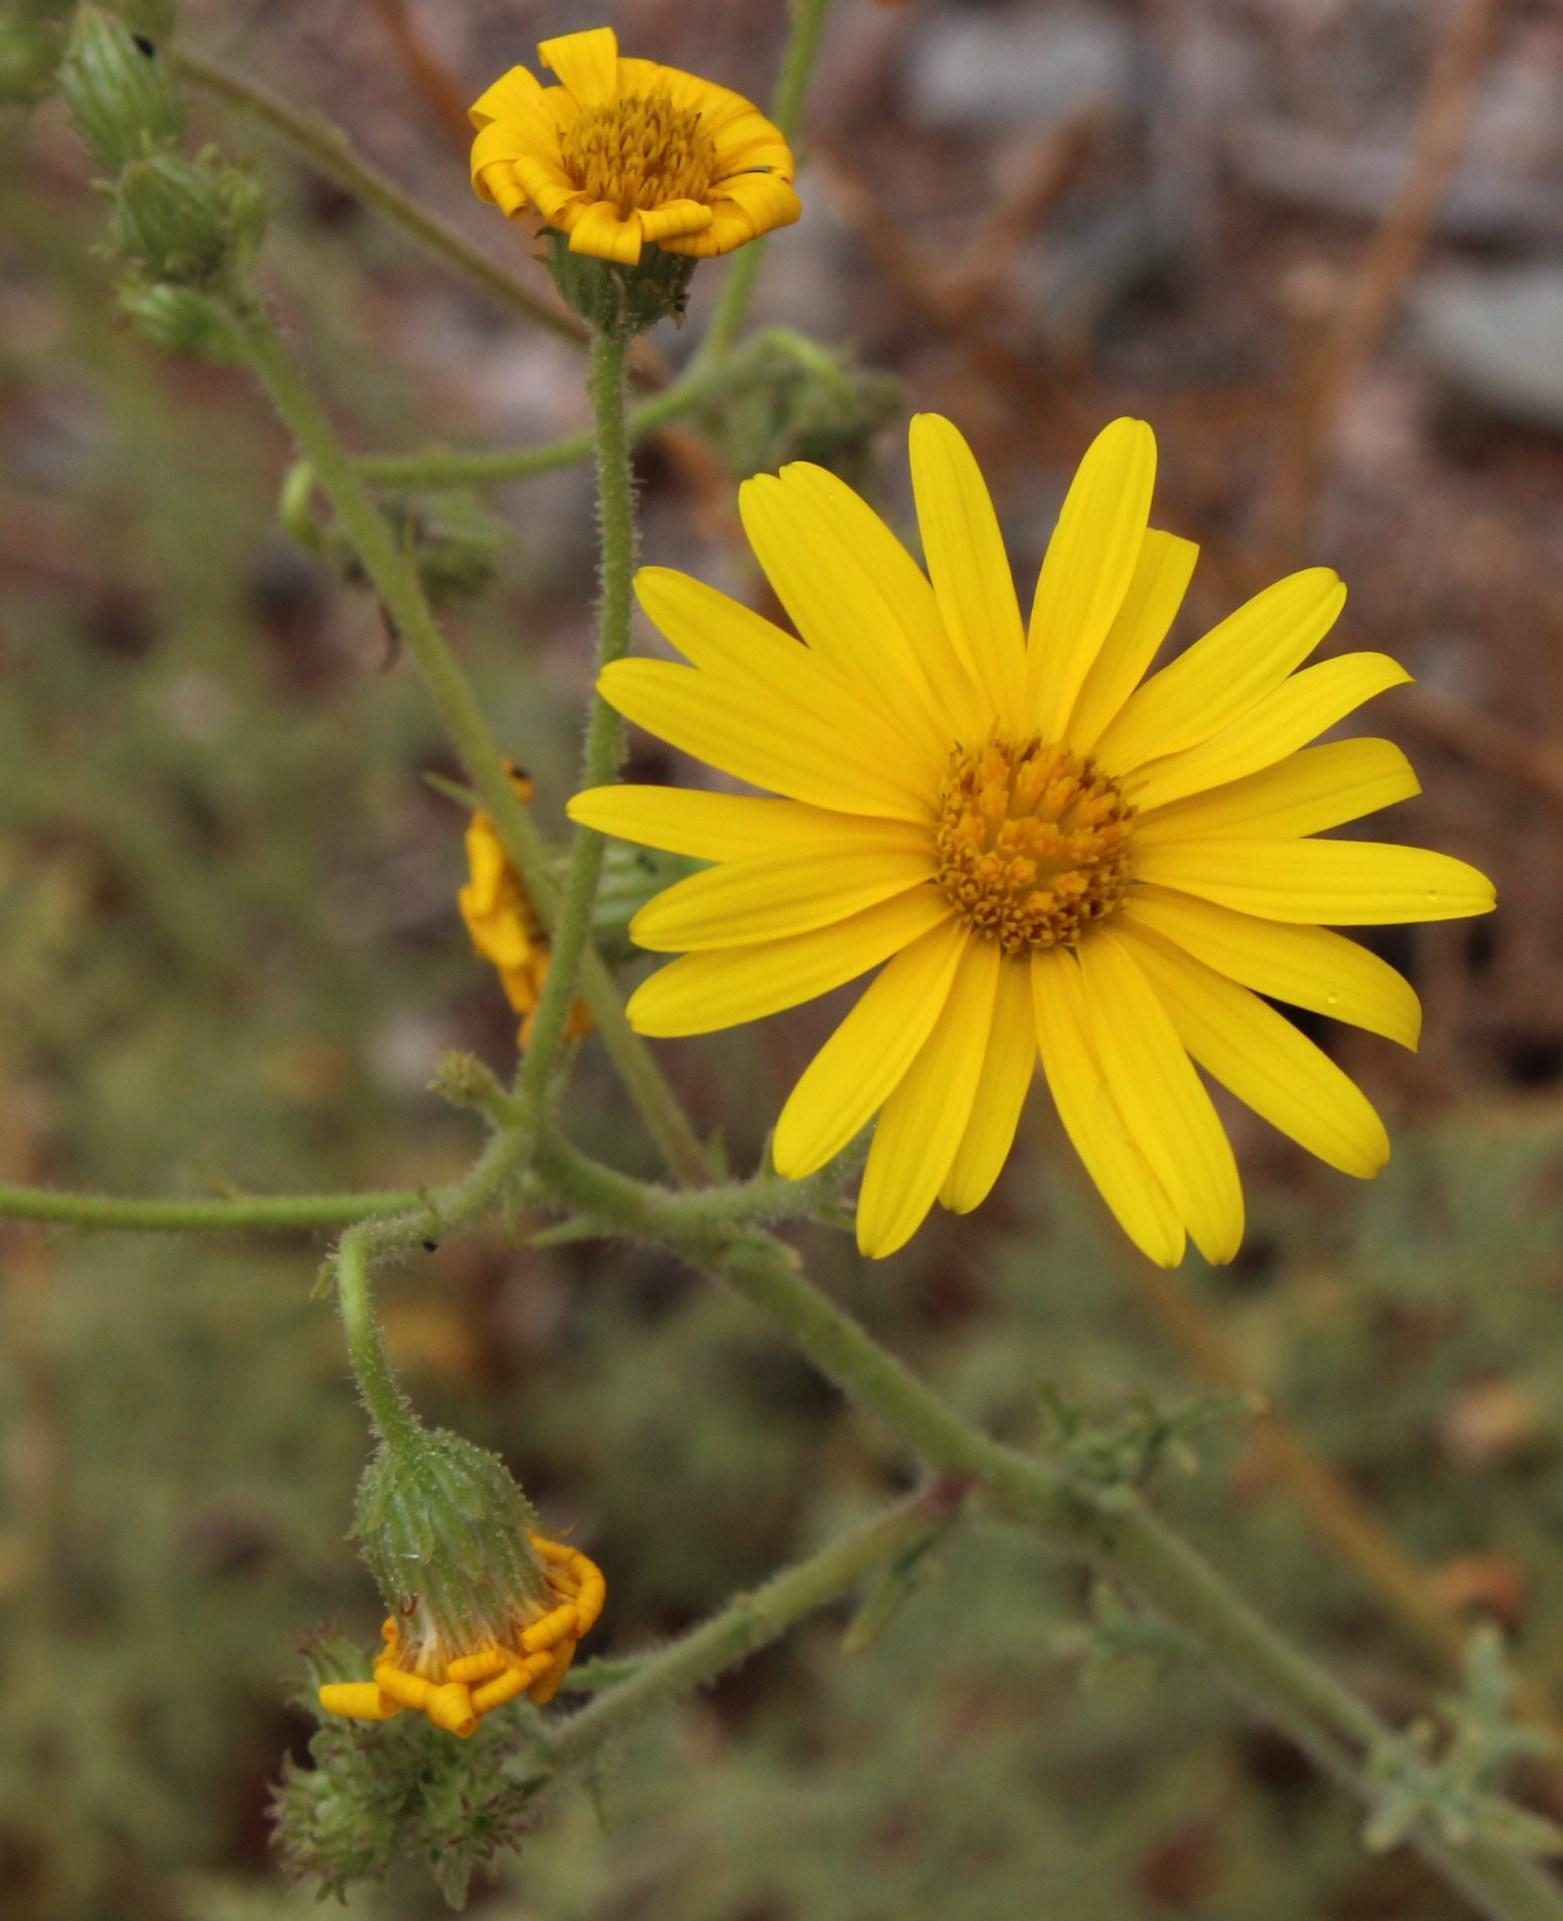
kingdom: Plantae
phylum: Tracheophyta
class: Magnoliopsida
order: Asterales
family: Asteraceae
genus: Osteospermum
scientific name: Osteospermum pinnatilobatum
